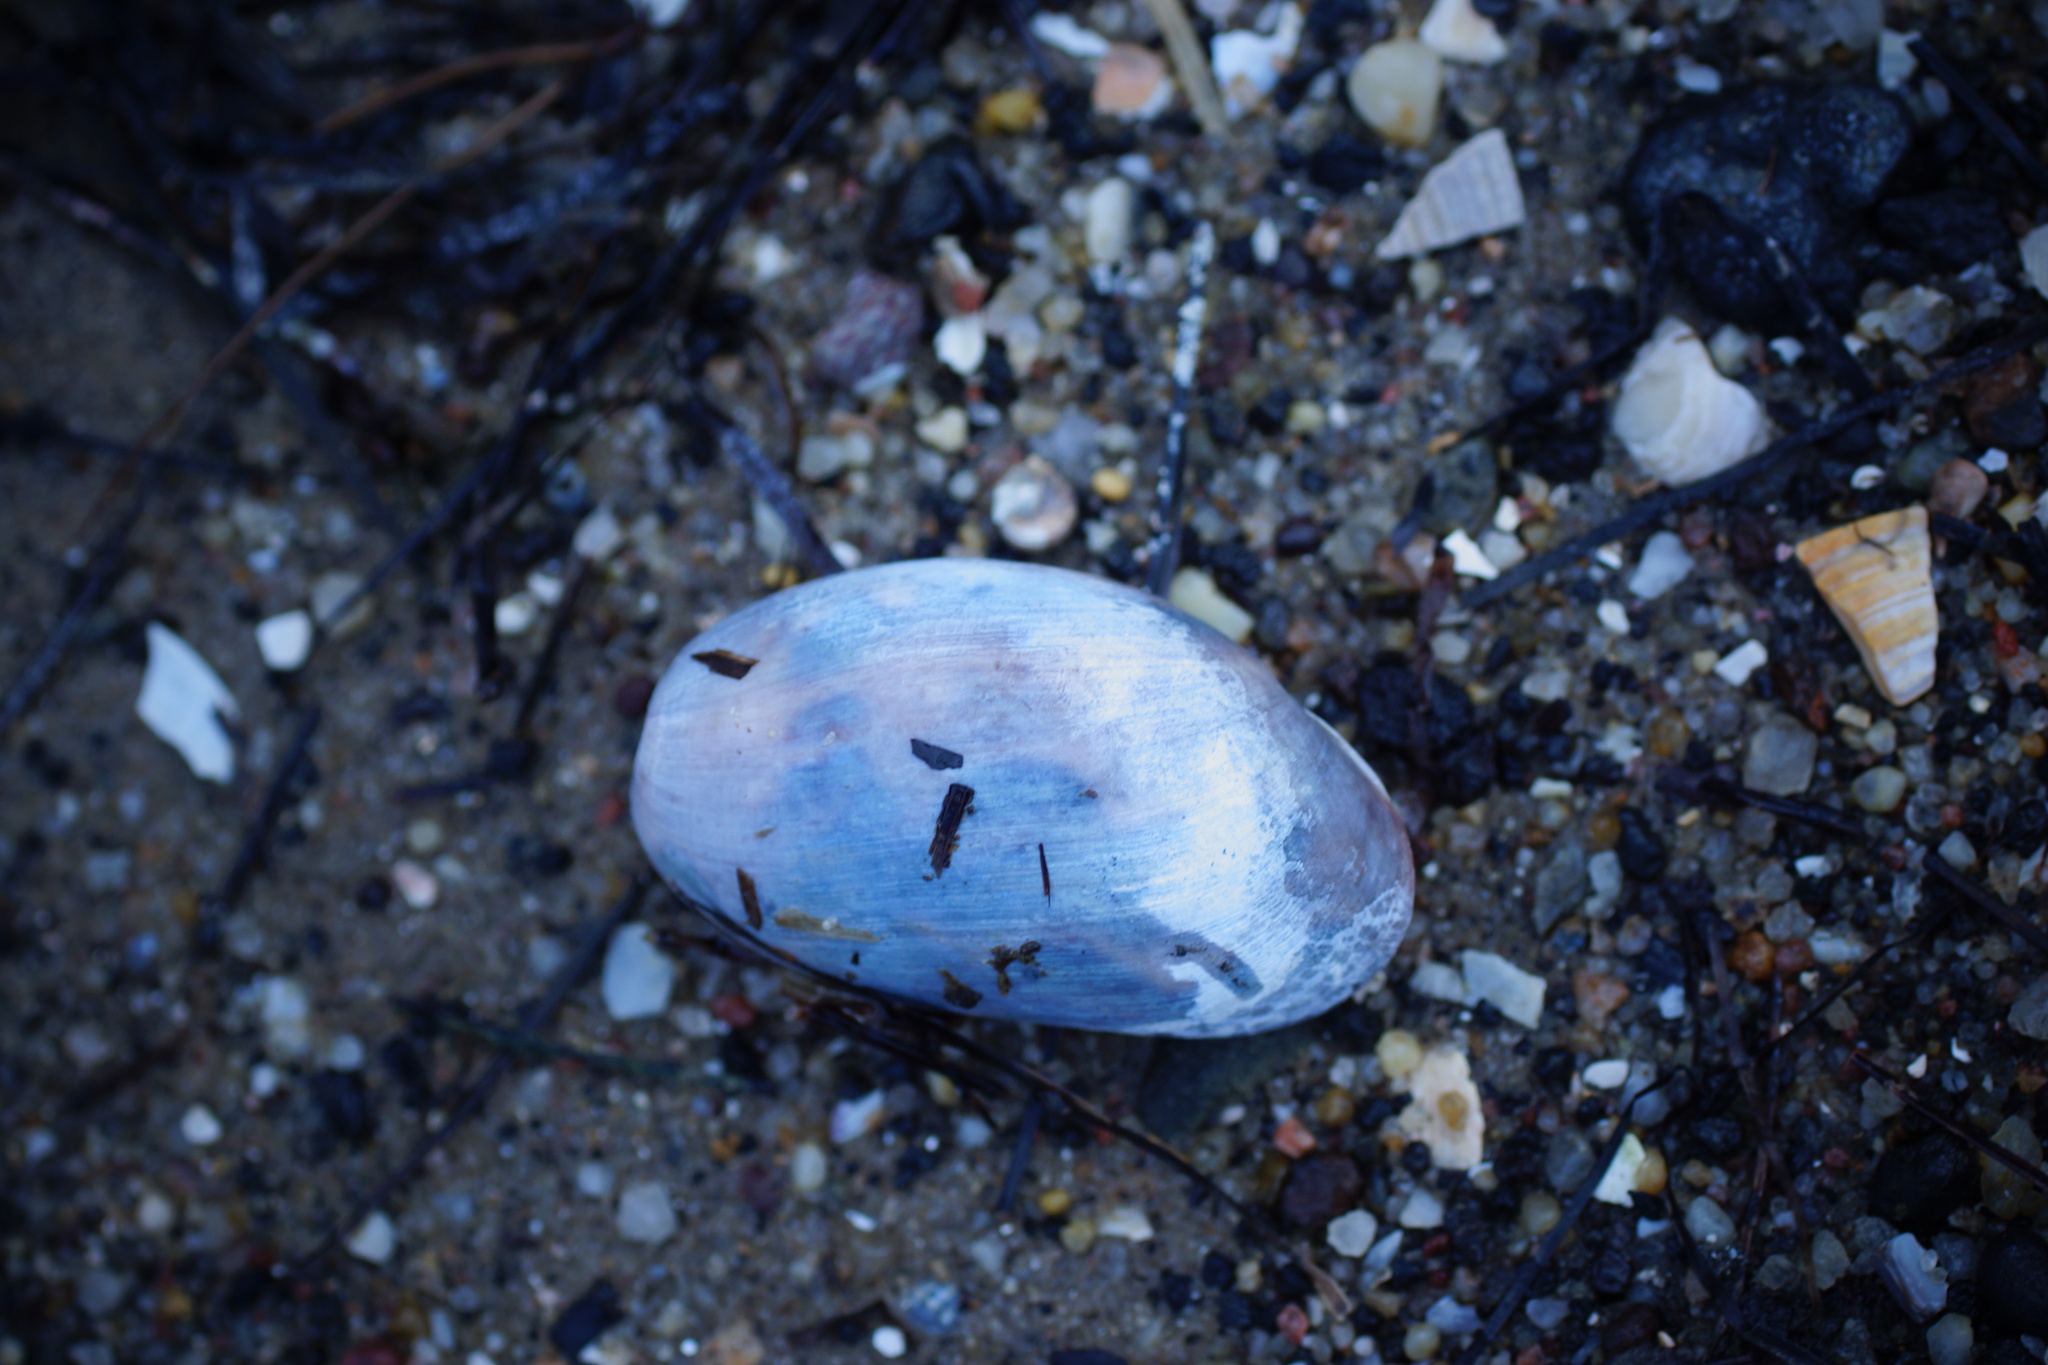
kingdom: Animalia
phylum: Mollusca
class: Gastropoda
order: Cephalaspidea
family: Bullidae
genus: Bulla
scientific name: Bulla quoyii
